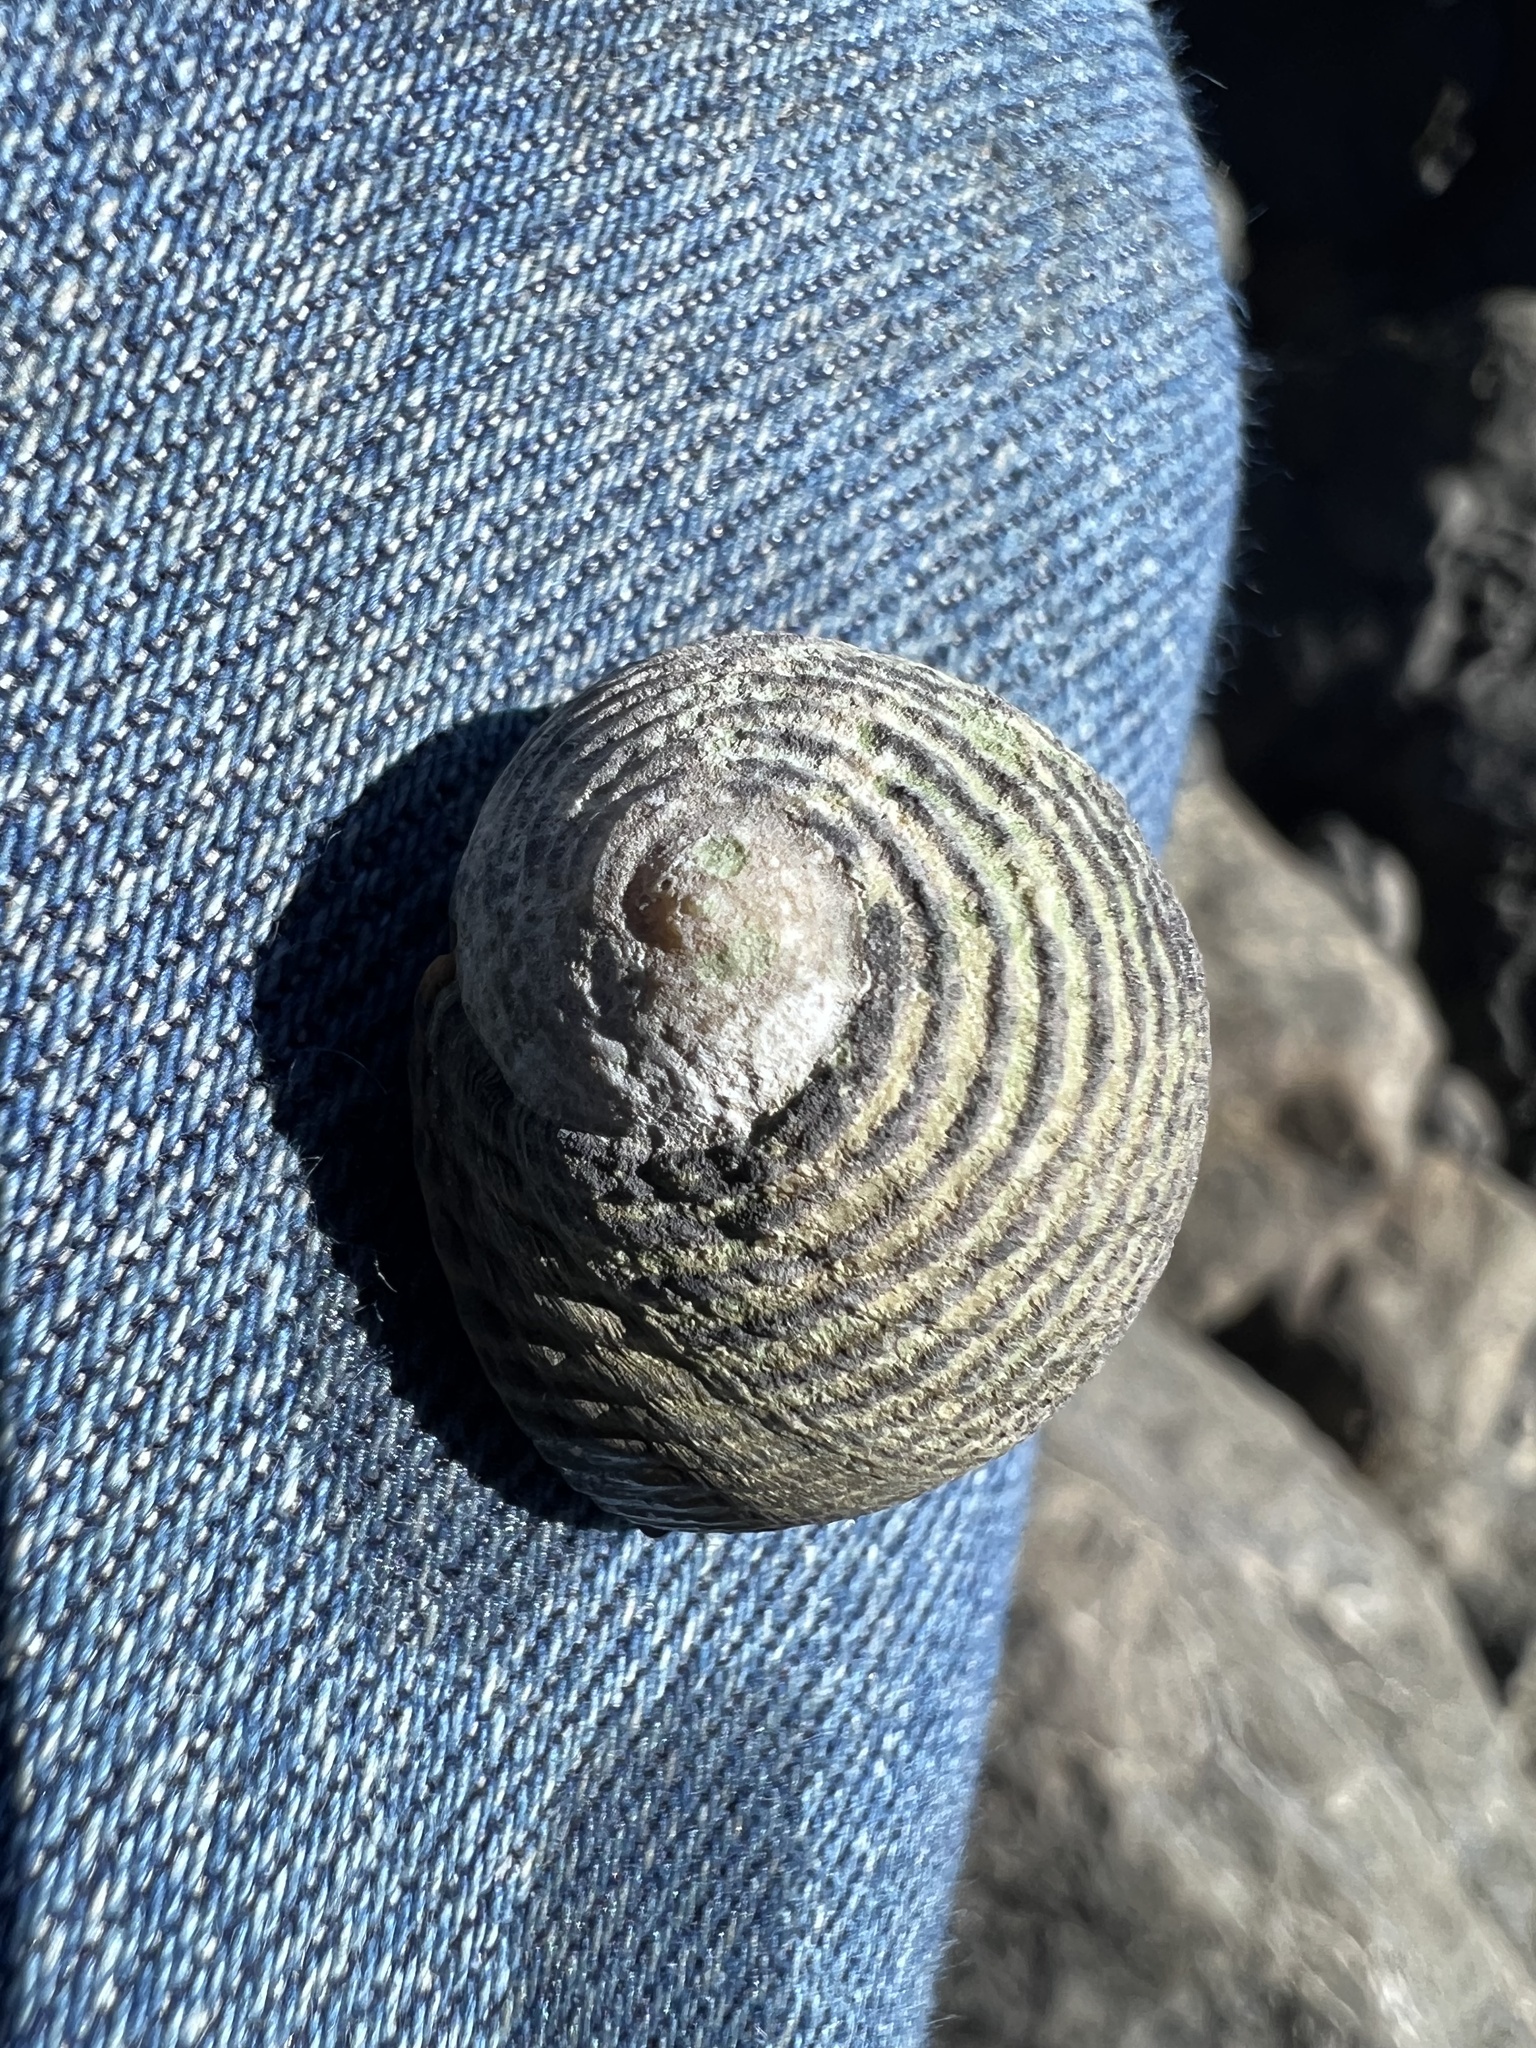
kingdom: Animalia
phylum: Mollusca
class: Gastropoda
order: Cycloneritida
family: Neritidae
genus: Nerita
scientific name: Nerita scabricosta
